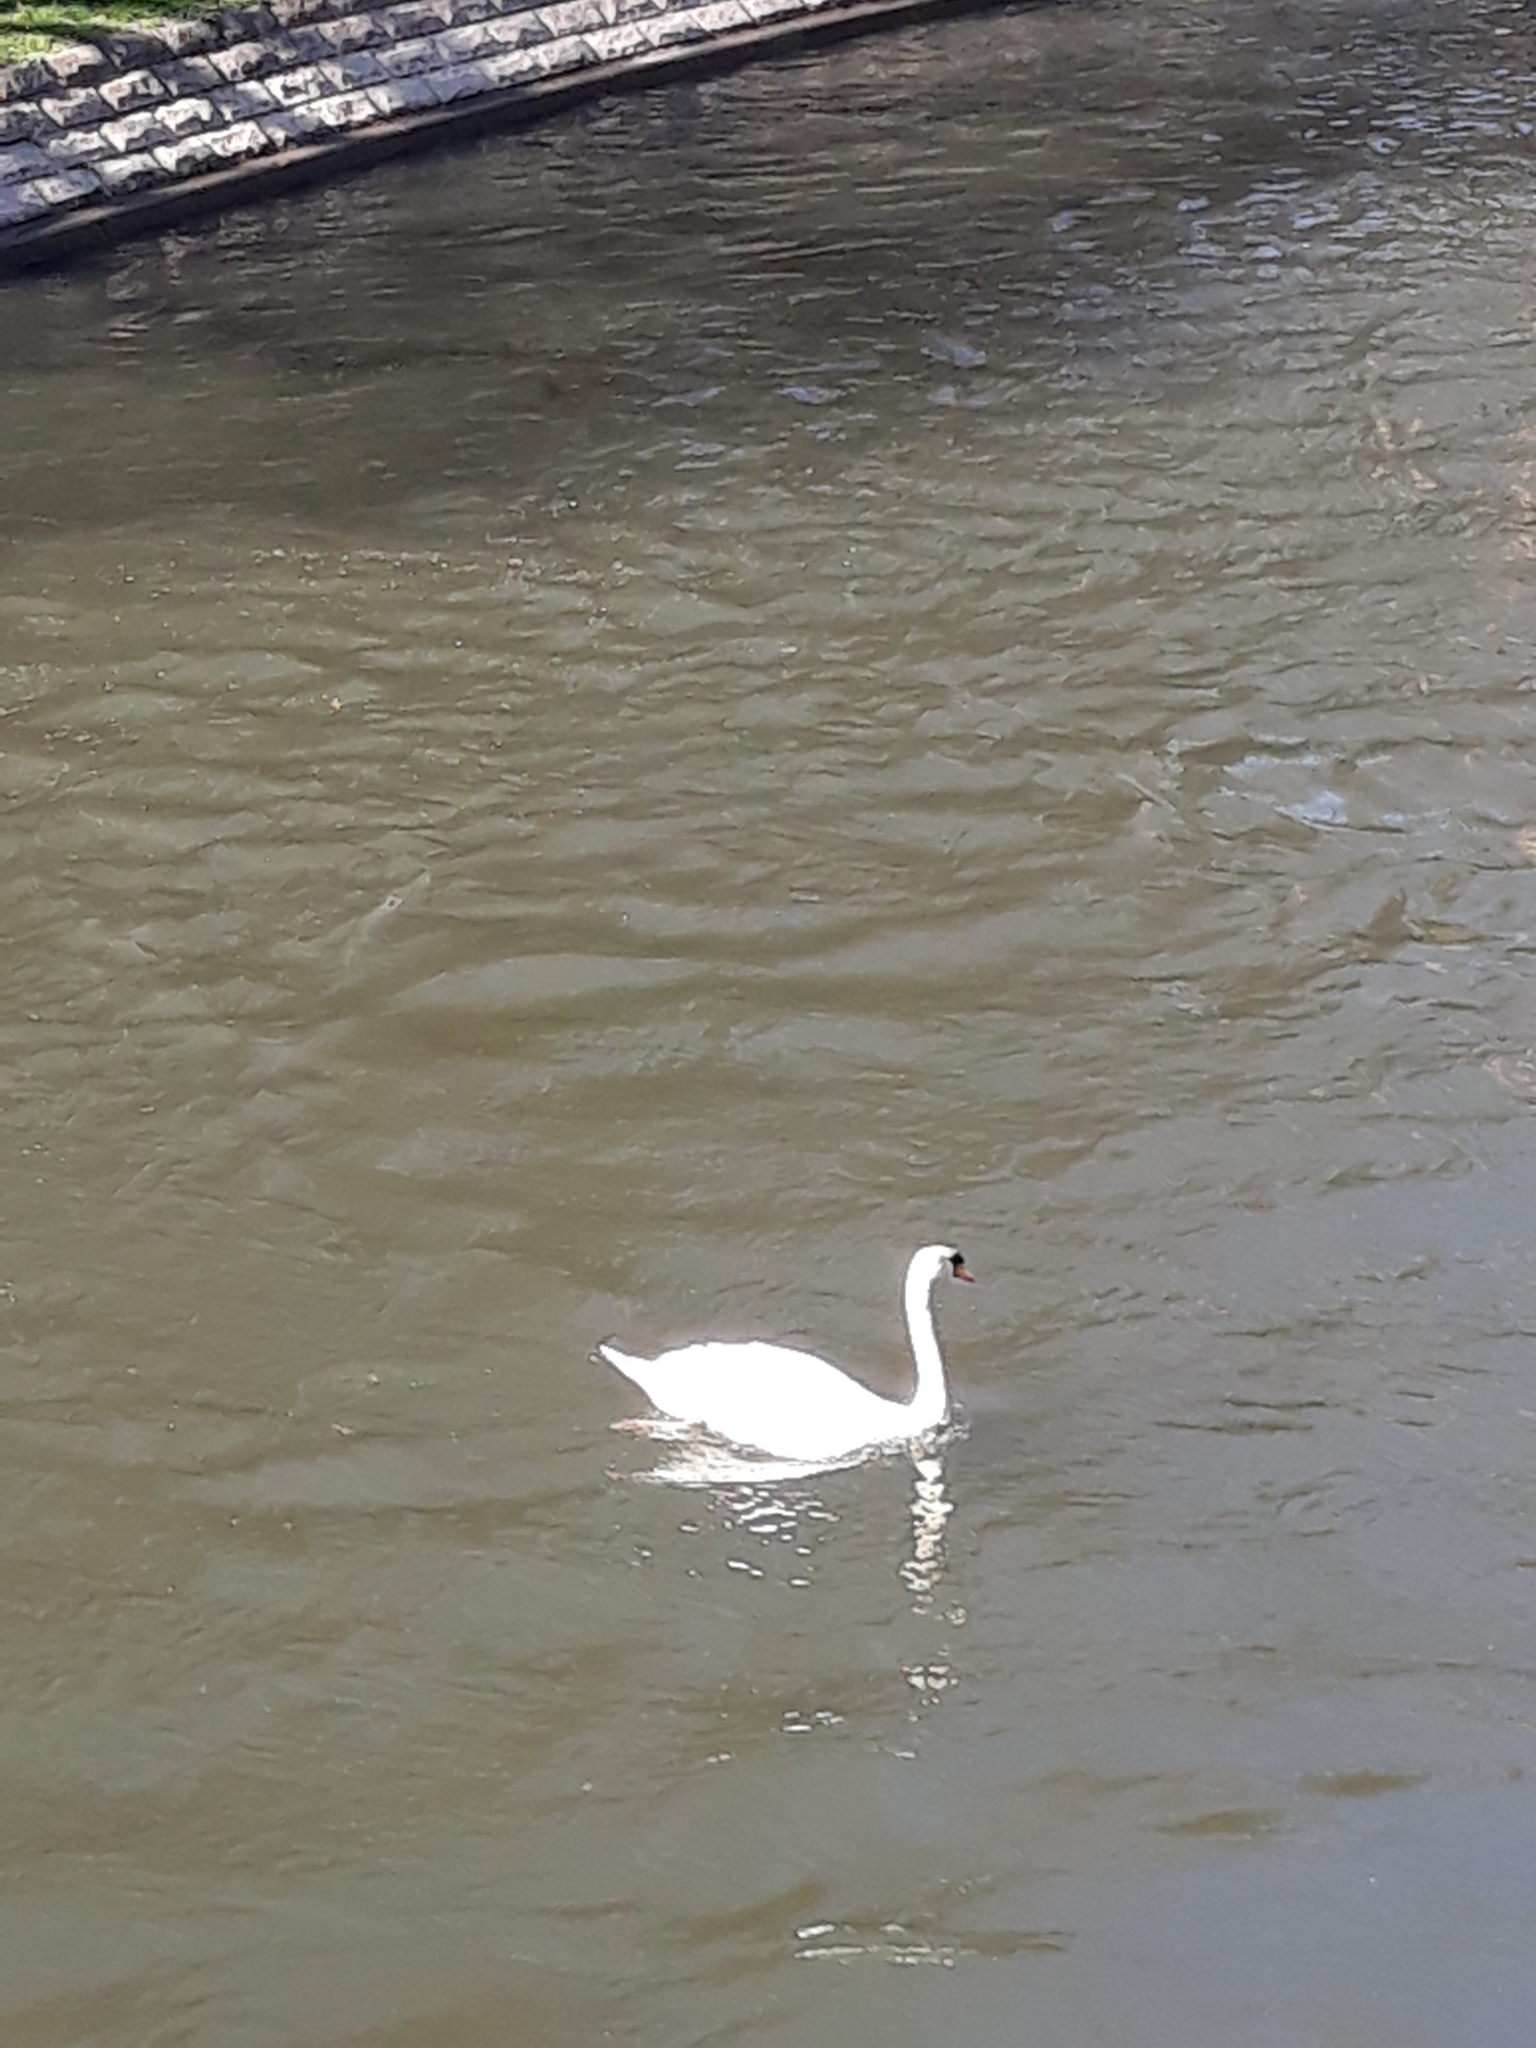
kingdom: Animalia
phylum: Chordata
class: Aves
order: Anseriformes
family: Anatidae
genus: Cygnus
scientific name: Cygnus olor
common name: Mute swan
